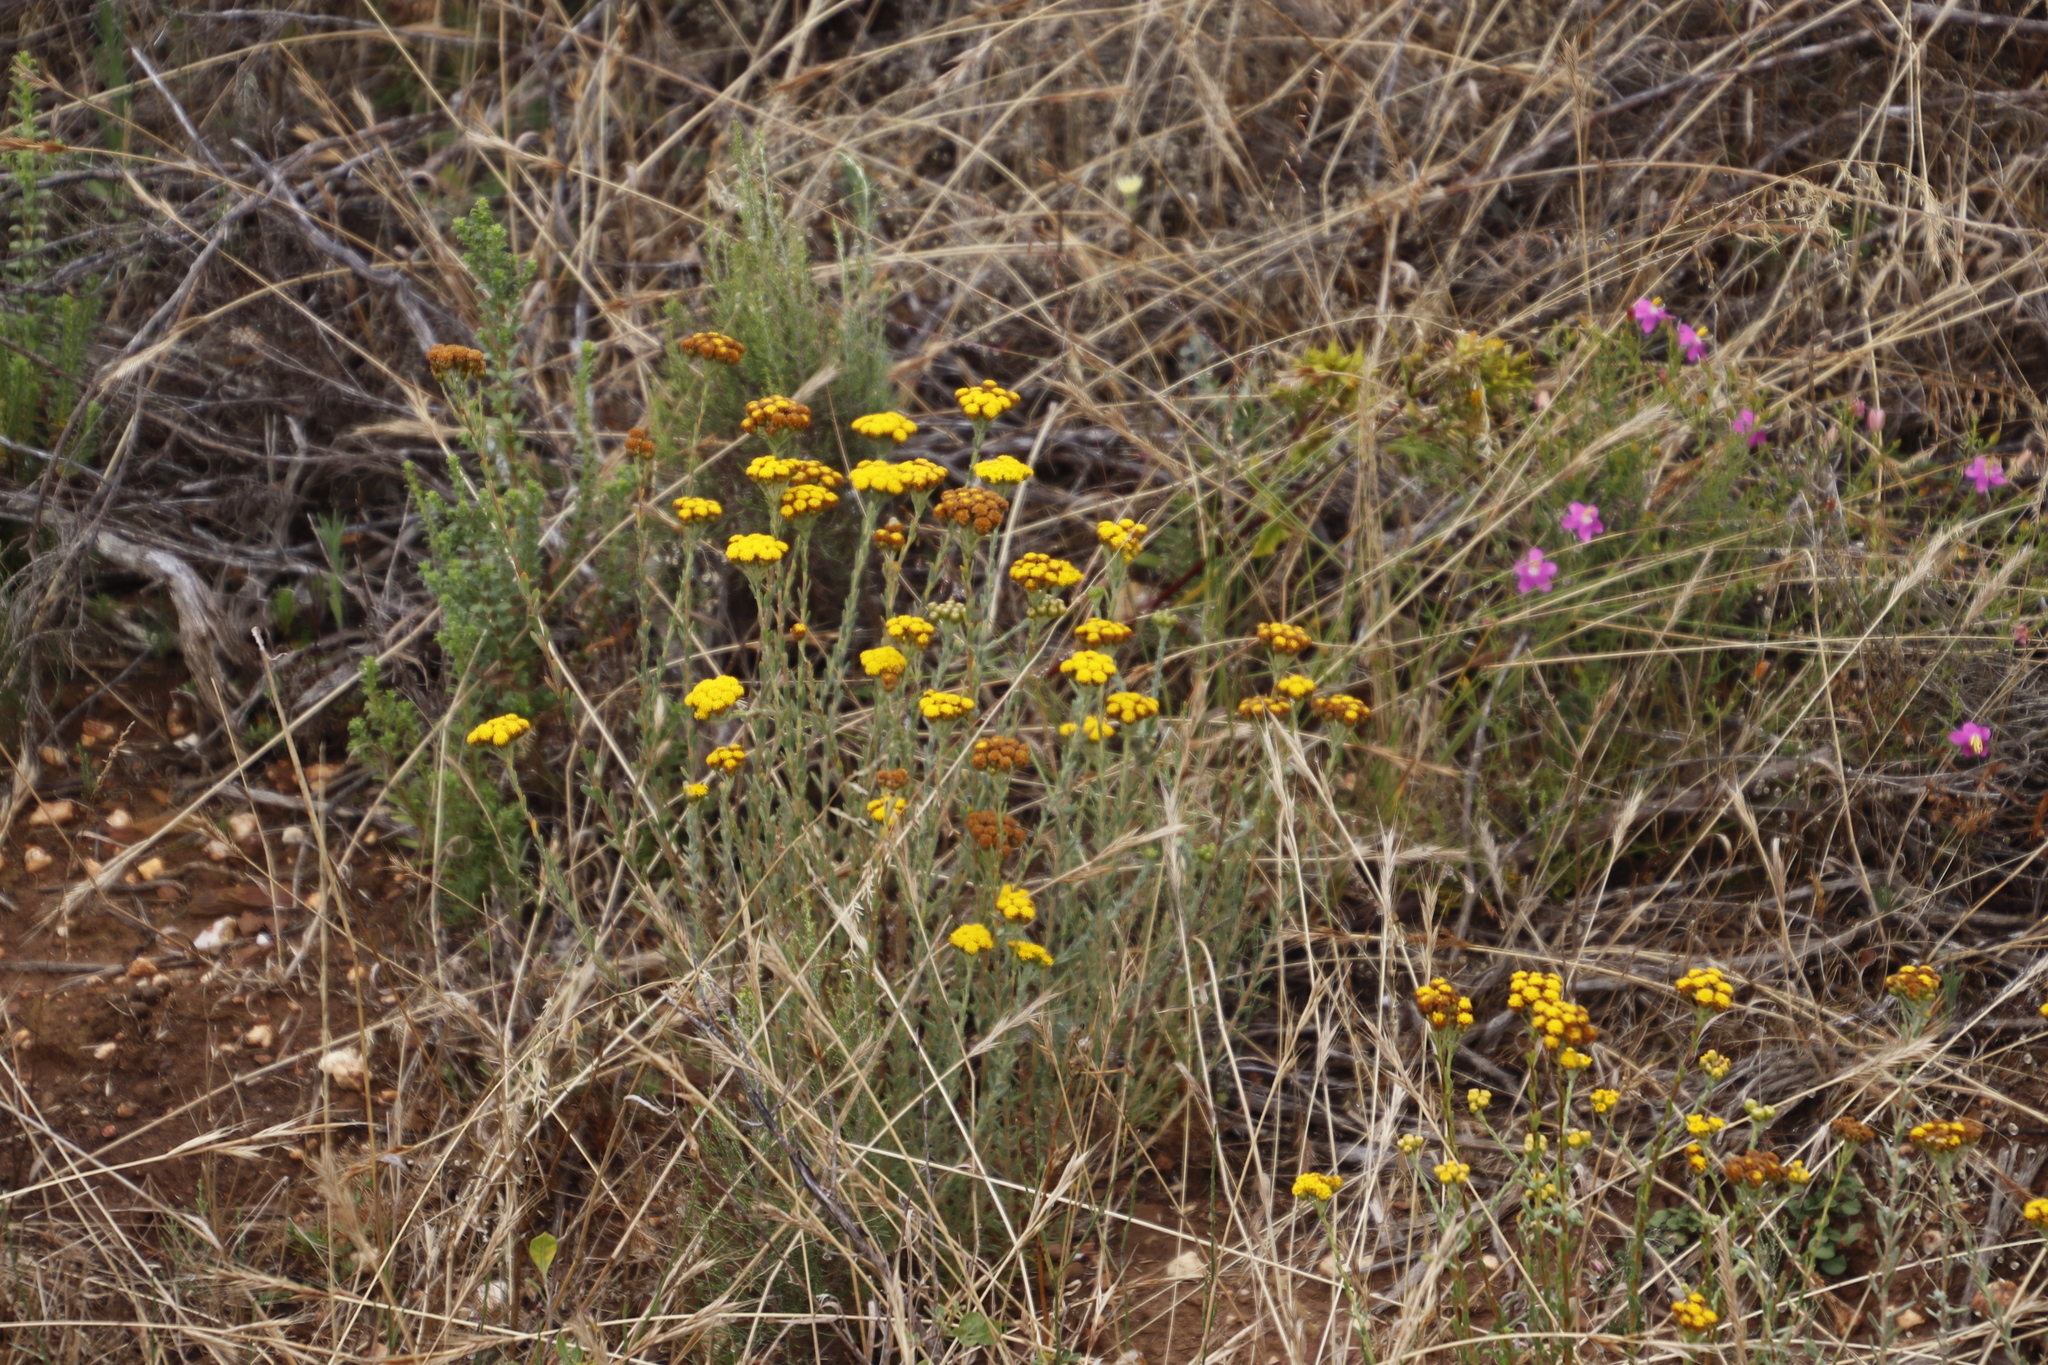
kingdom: Plantae
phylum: Tracheophyta
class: Magnoliopsida
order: Asterales
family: Asteraceae
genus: Athanasia
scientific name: Athanasia trifurcata
